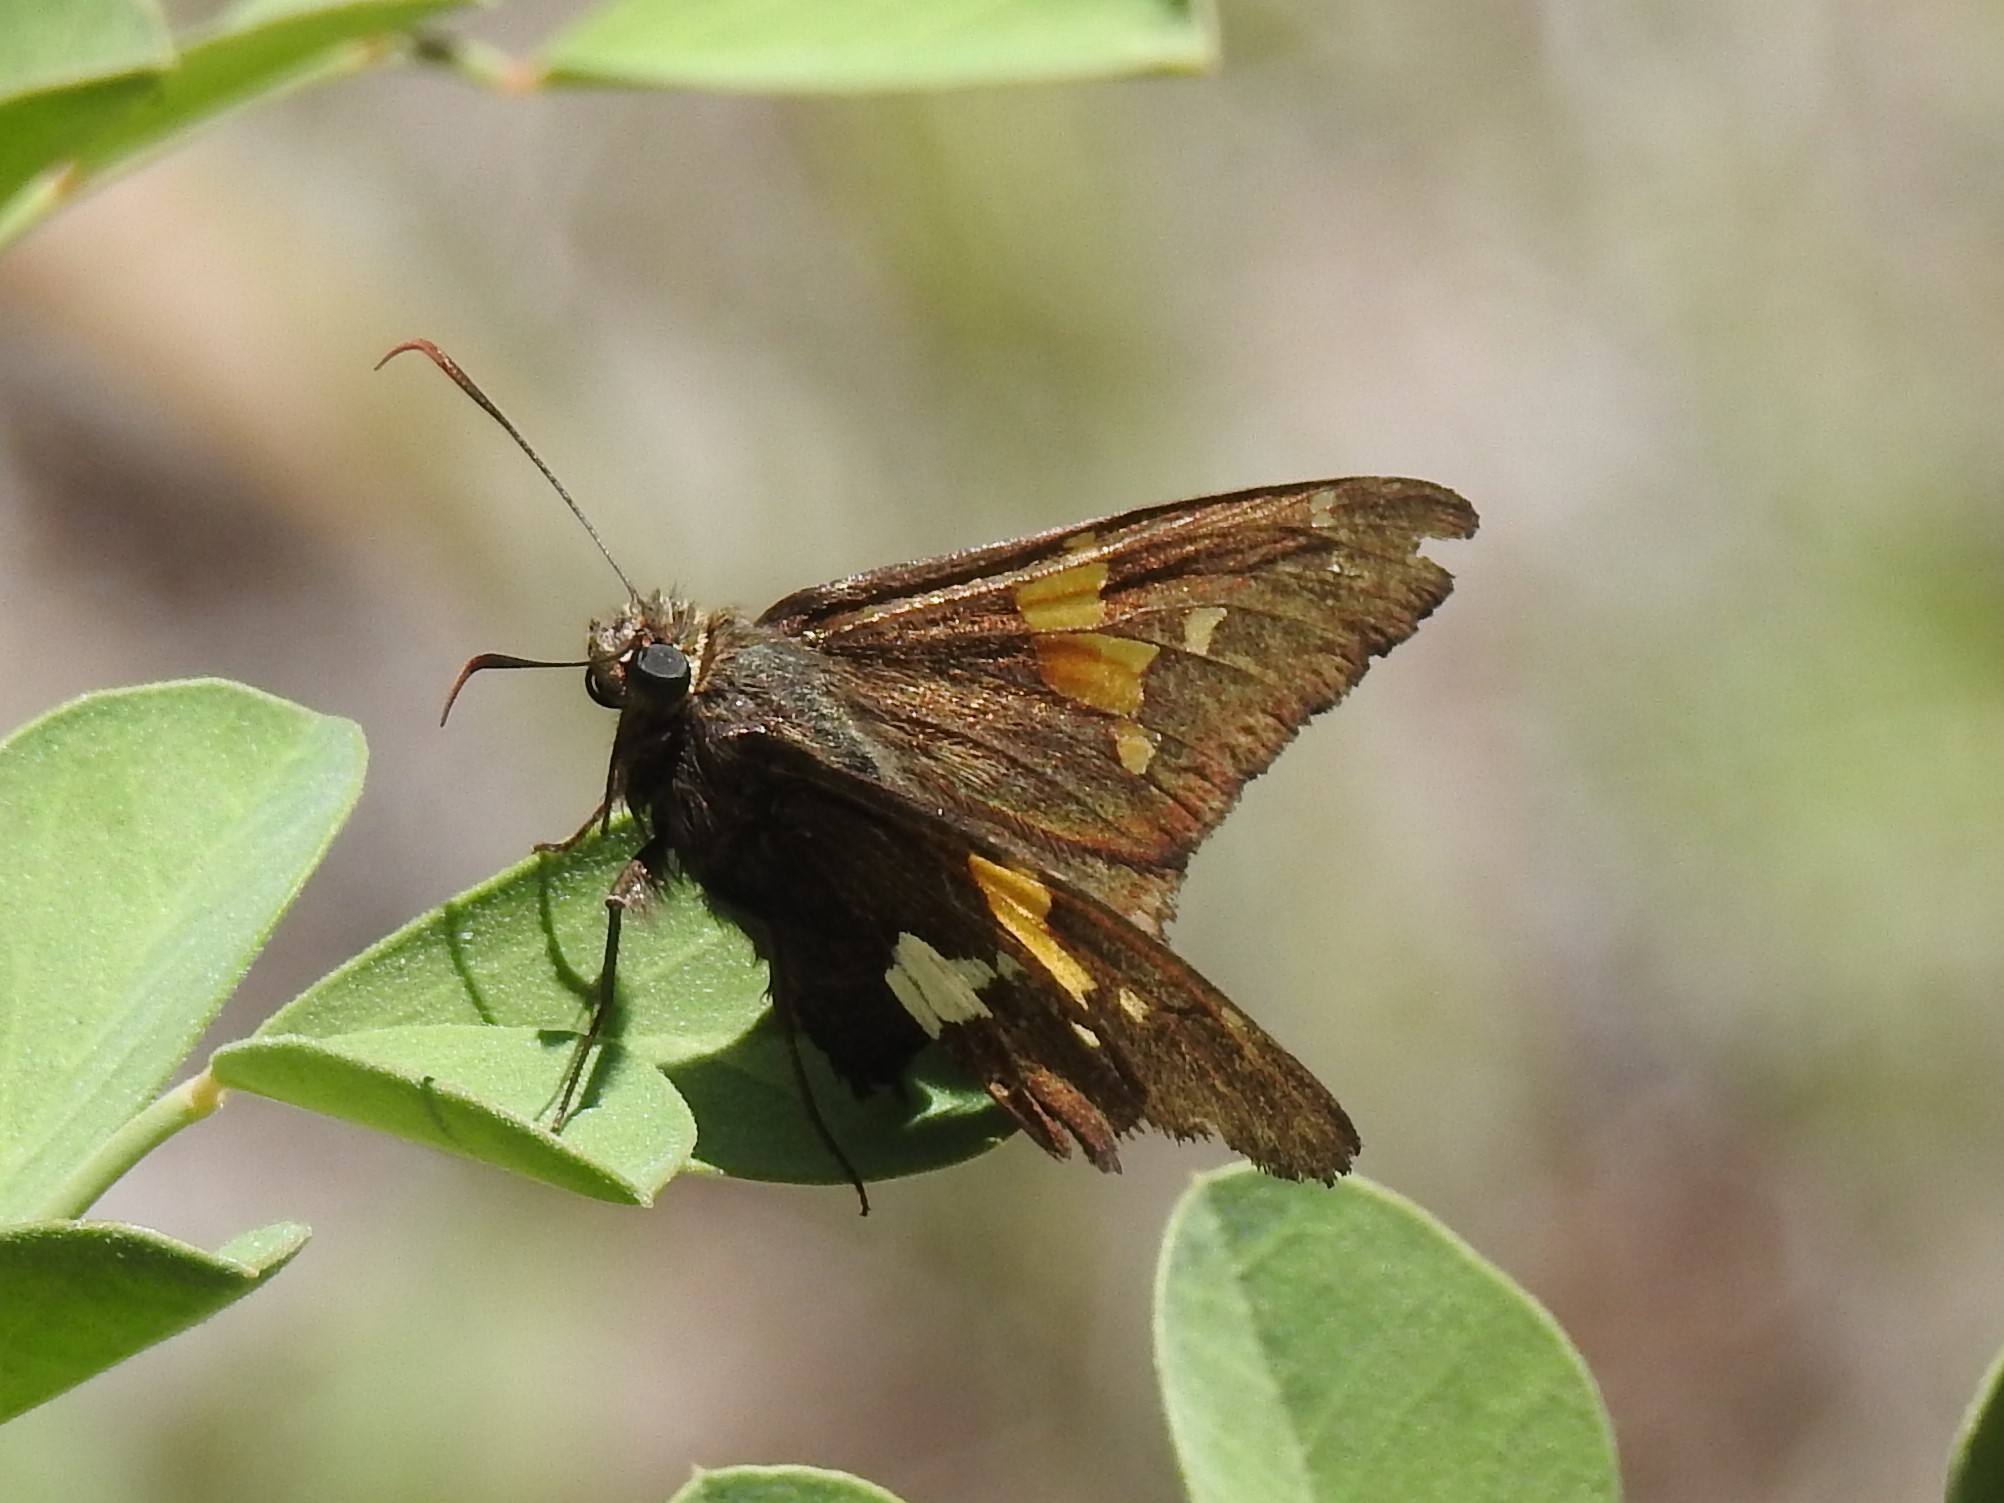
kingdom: Animalia
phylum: Arthropoda
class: Insecta
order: Lepidoptera
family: Hesperiidae
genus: Epargyreus
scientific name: Epargyreus clarus
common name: Silver-spotted skipper
